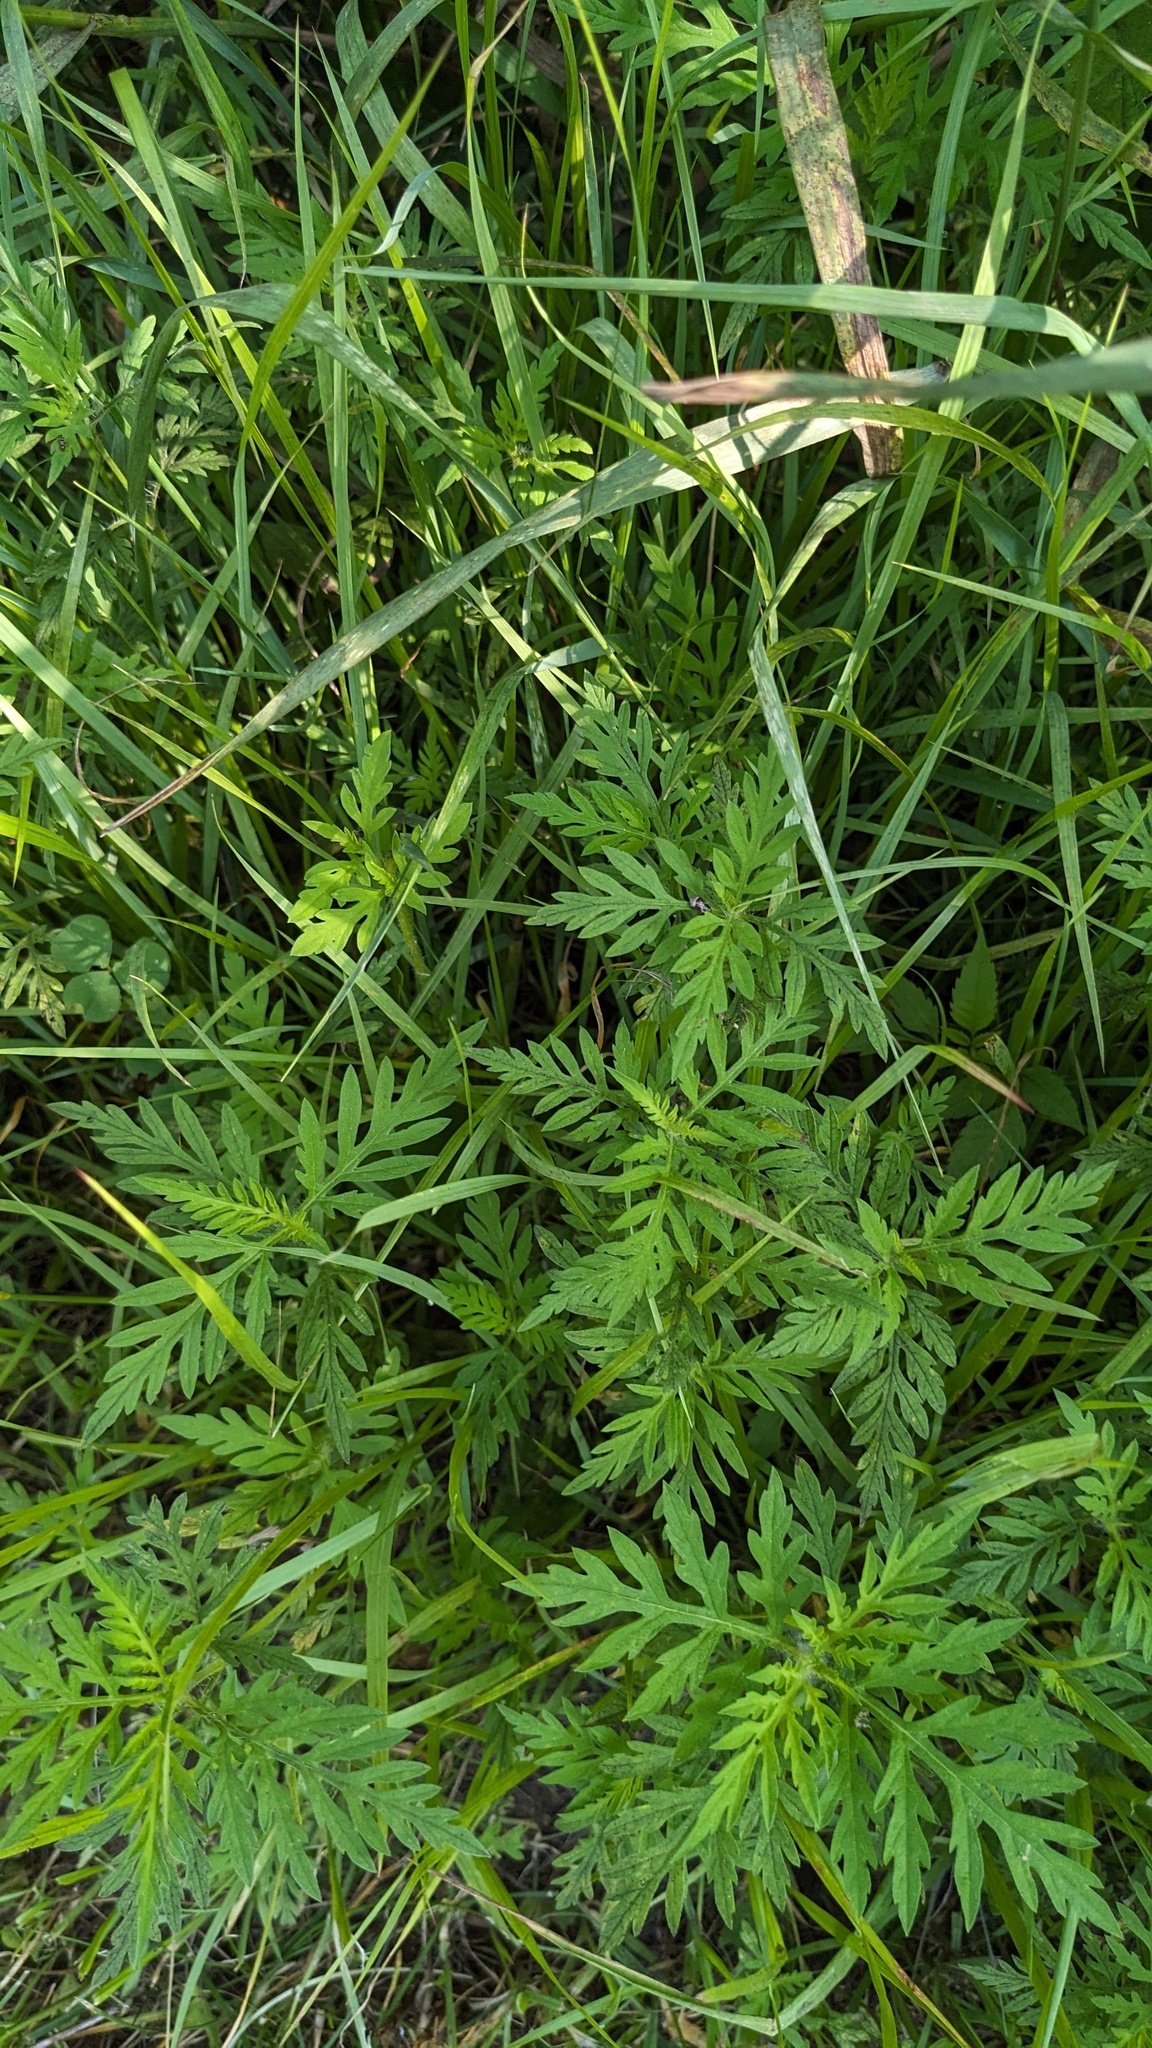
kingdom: Plantae
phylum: Tracheophyta
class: Magnoliopsida
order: Asterales
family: Asteraceae
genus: Ambrosia
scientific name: Ambrosia artemisiifolia
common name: Annual ragweed
